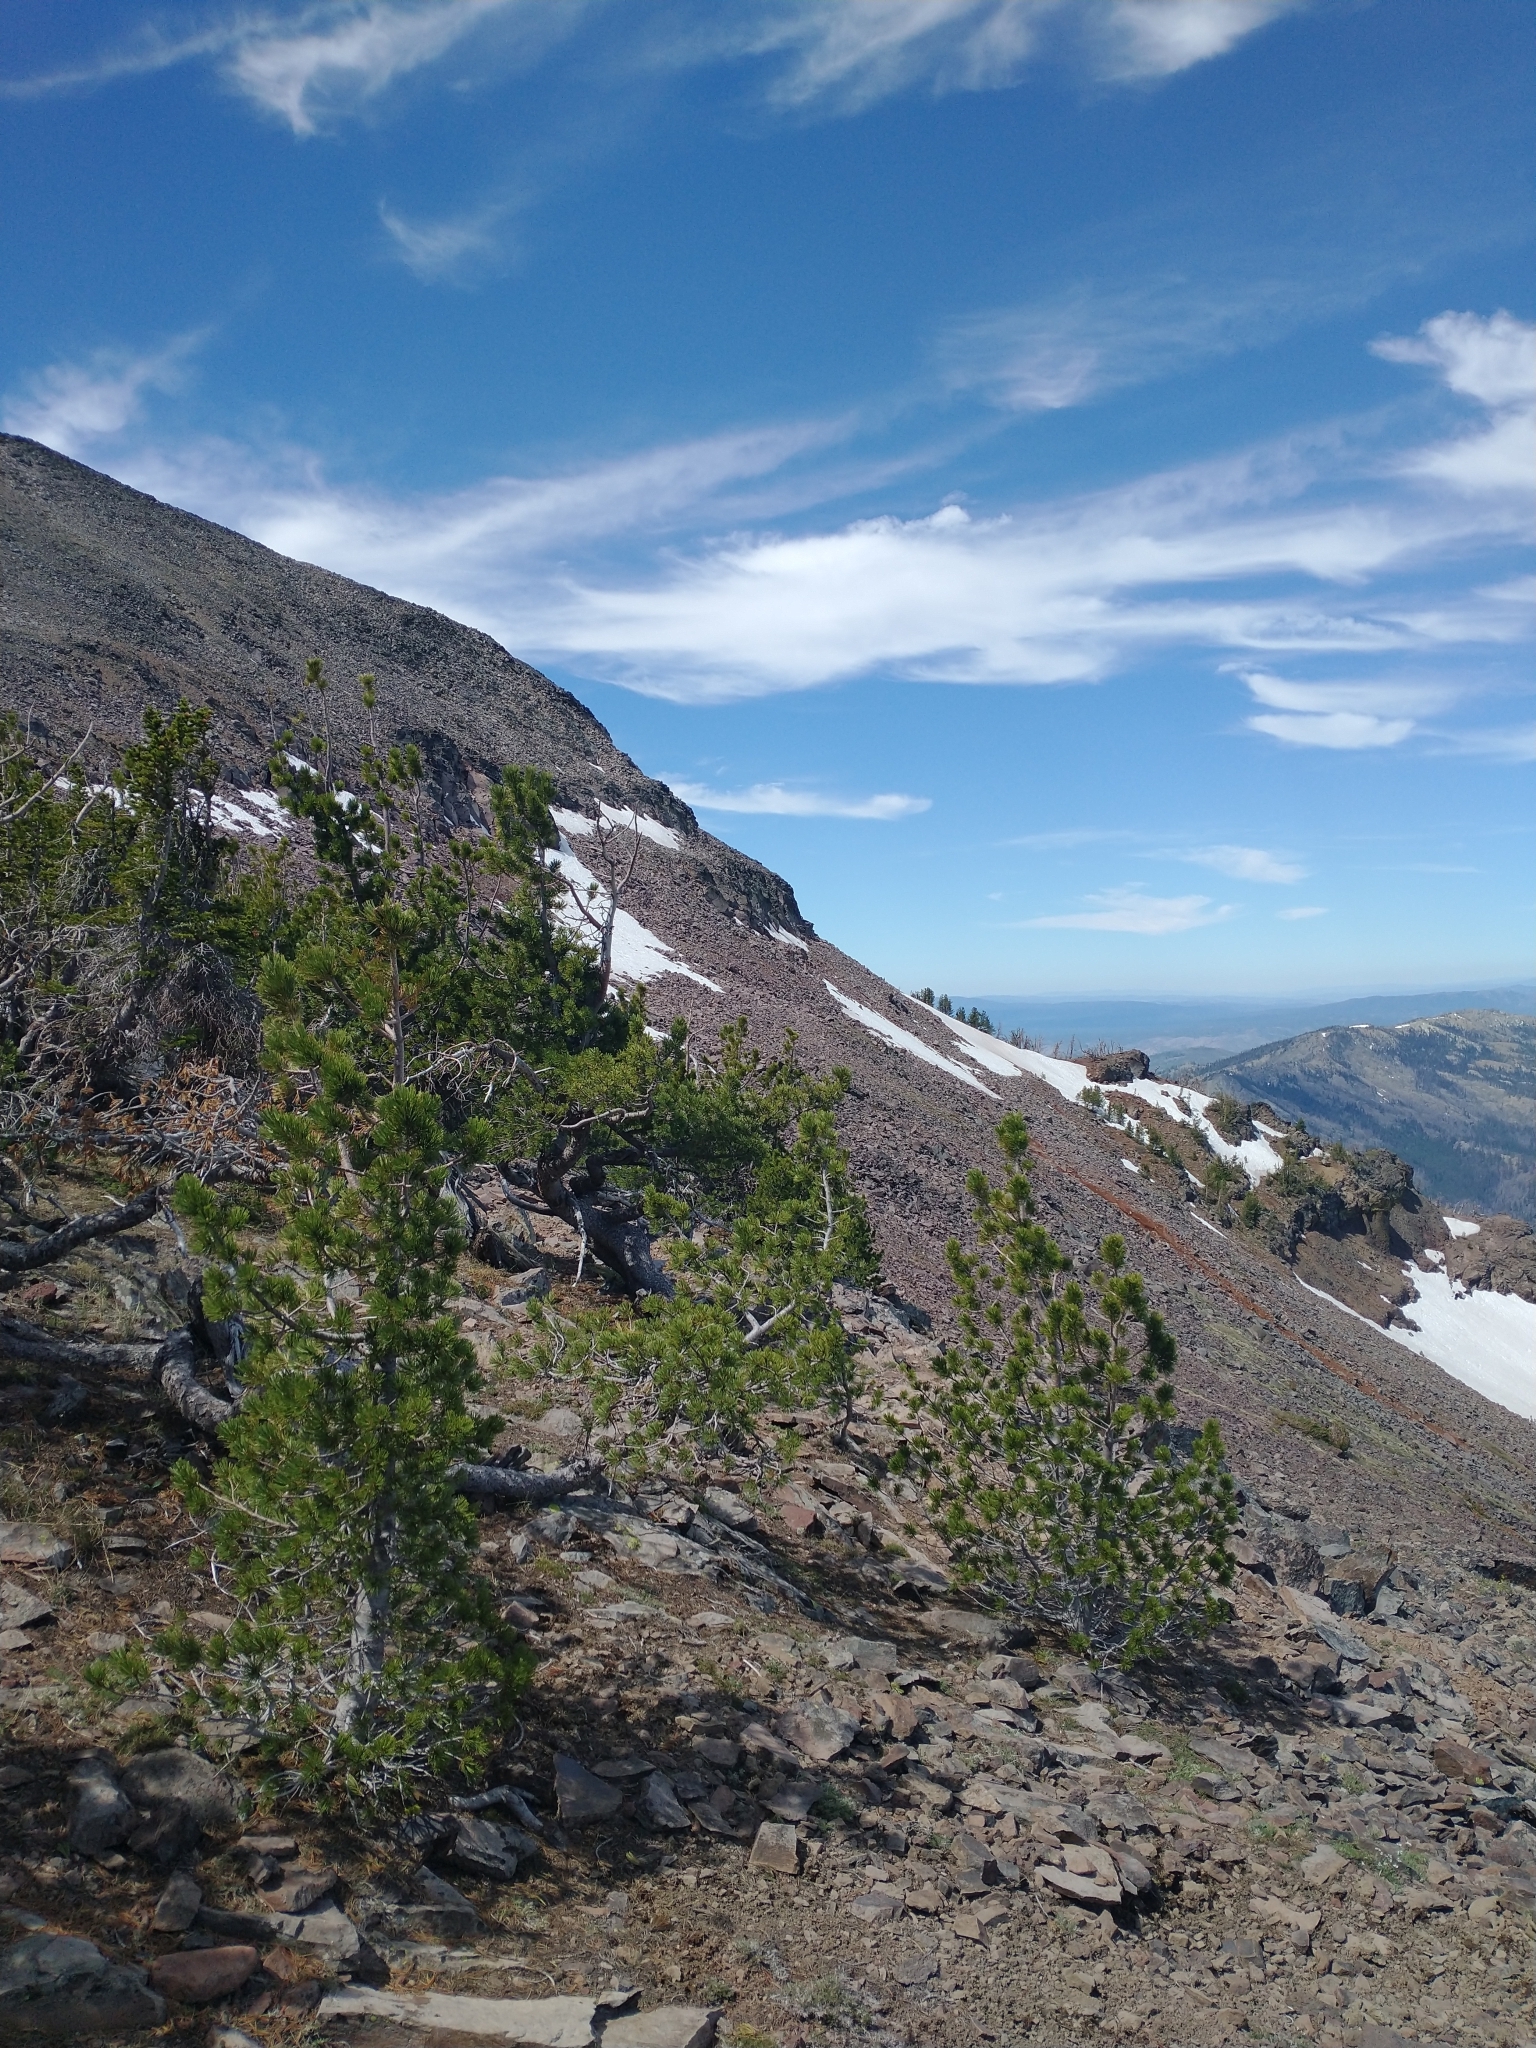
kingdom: Plantae
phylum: Tracheophyta
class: Pinopsida
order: Pinales
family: Pinaceae
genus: Pinus
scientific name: Pinus albicaulis
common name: Whitebark pine
